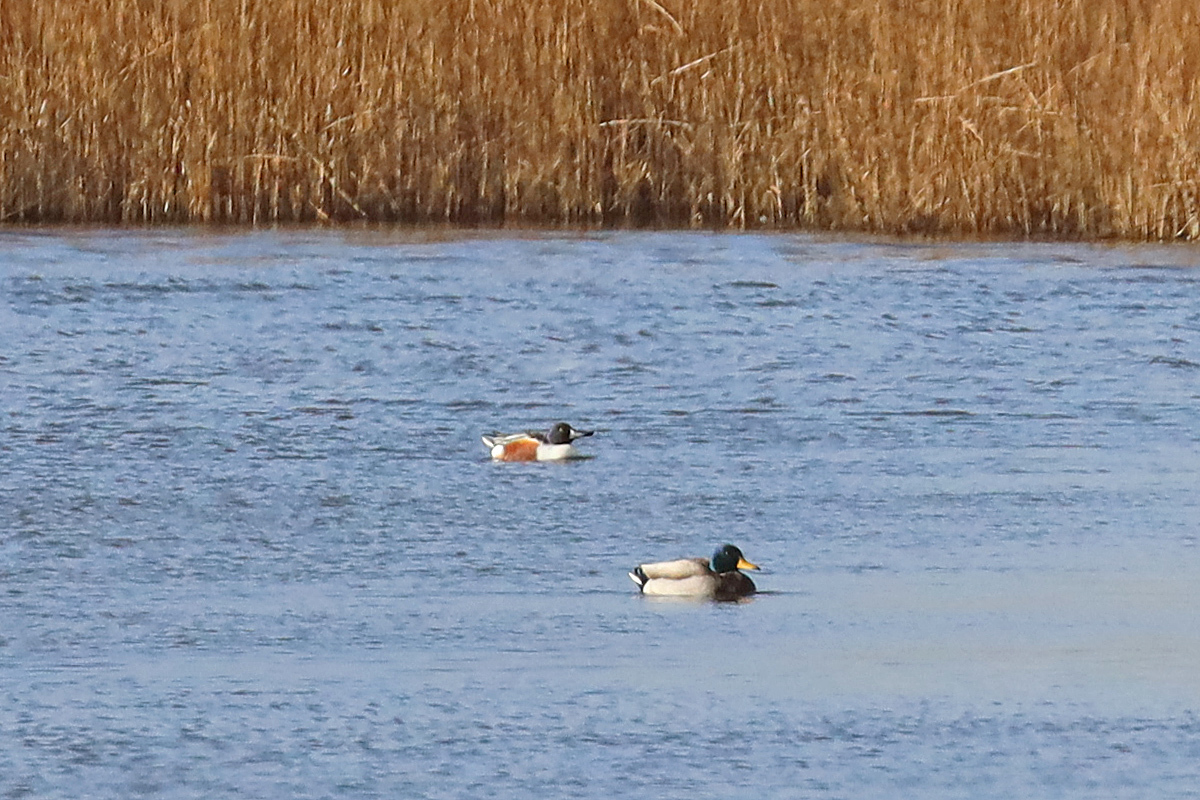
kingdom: Animalia
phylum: Chordata
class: Aves
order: Anseriformes
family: Anatidae
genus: Spatula
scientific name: Spatula clypeata
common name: Northern shoveler
